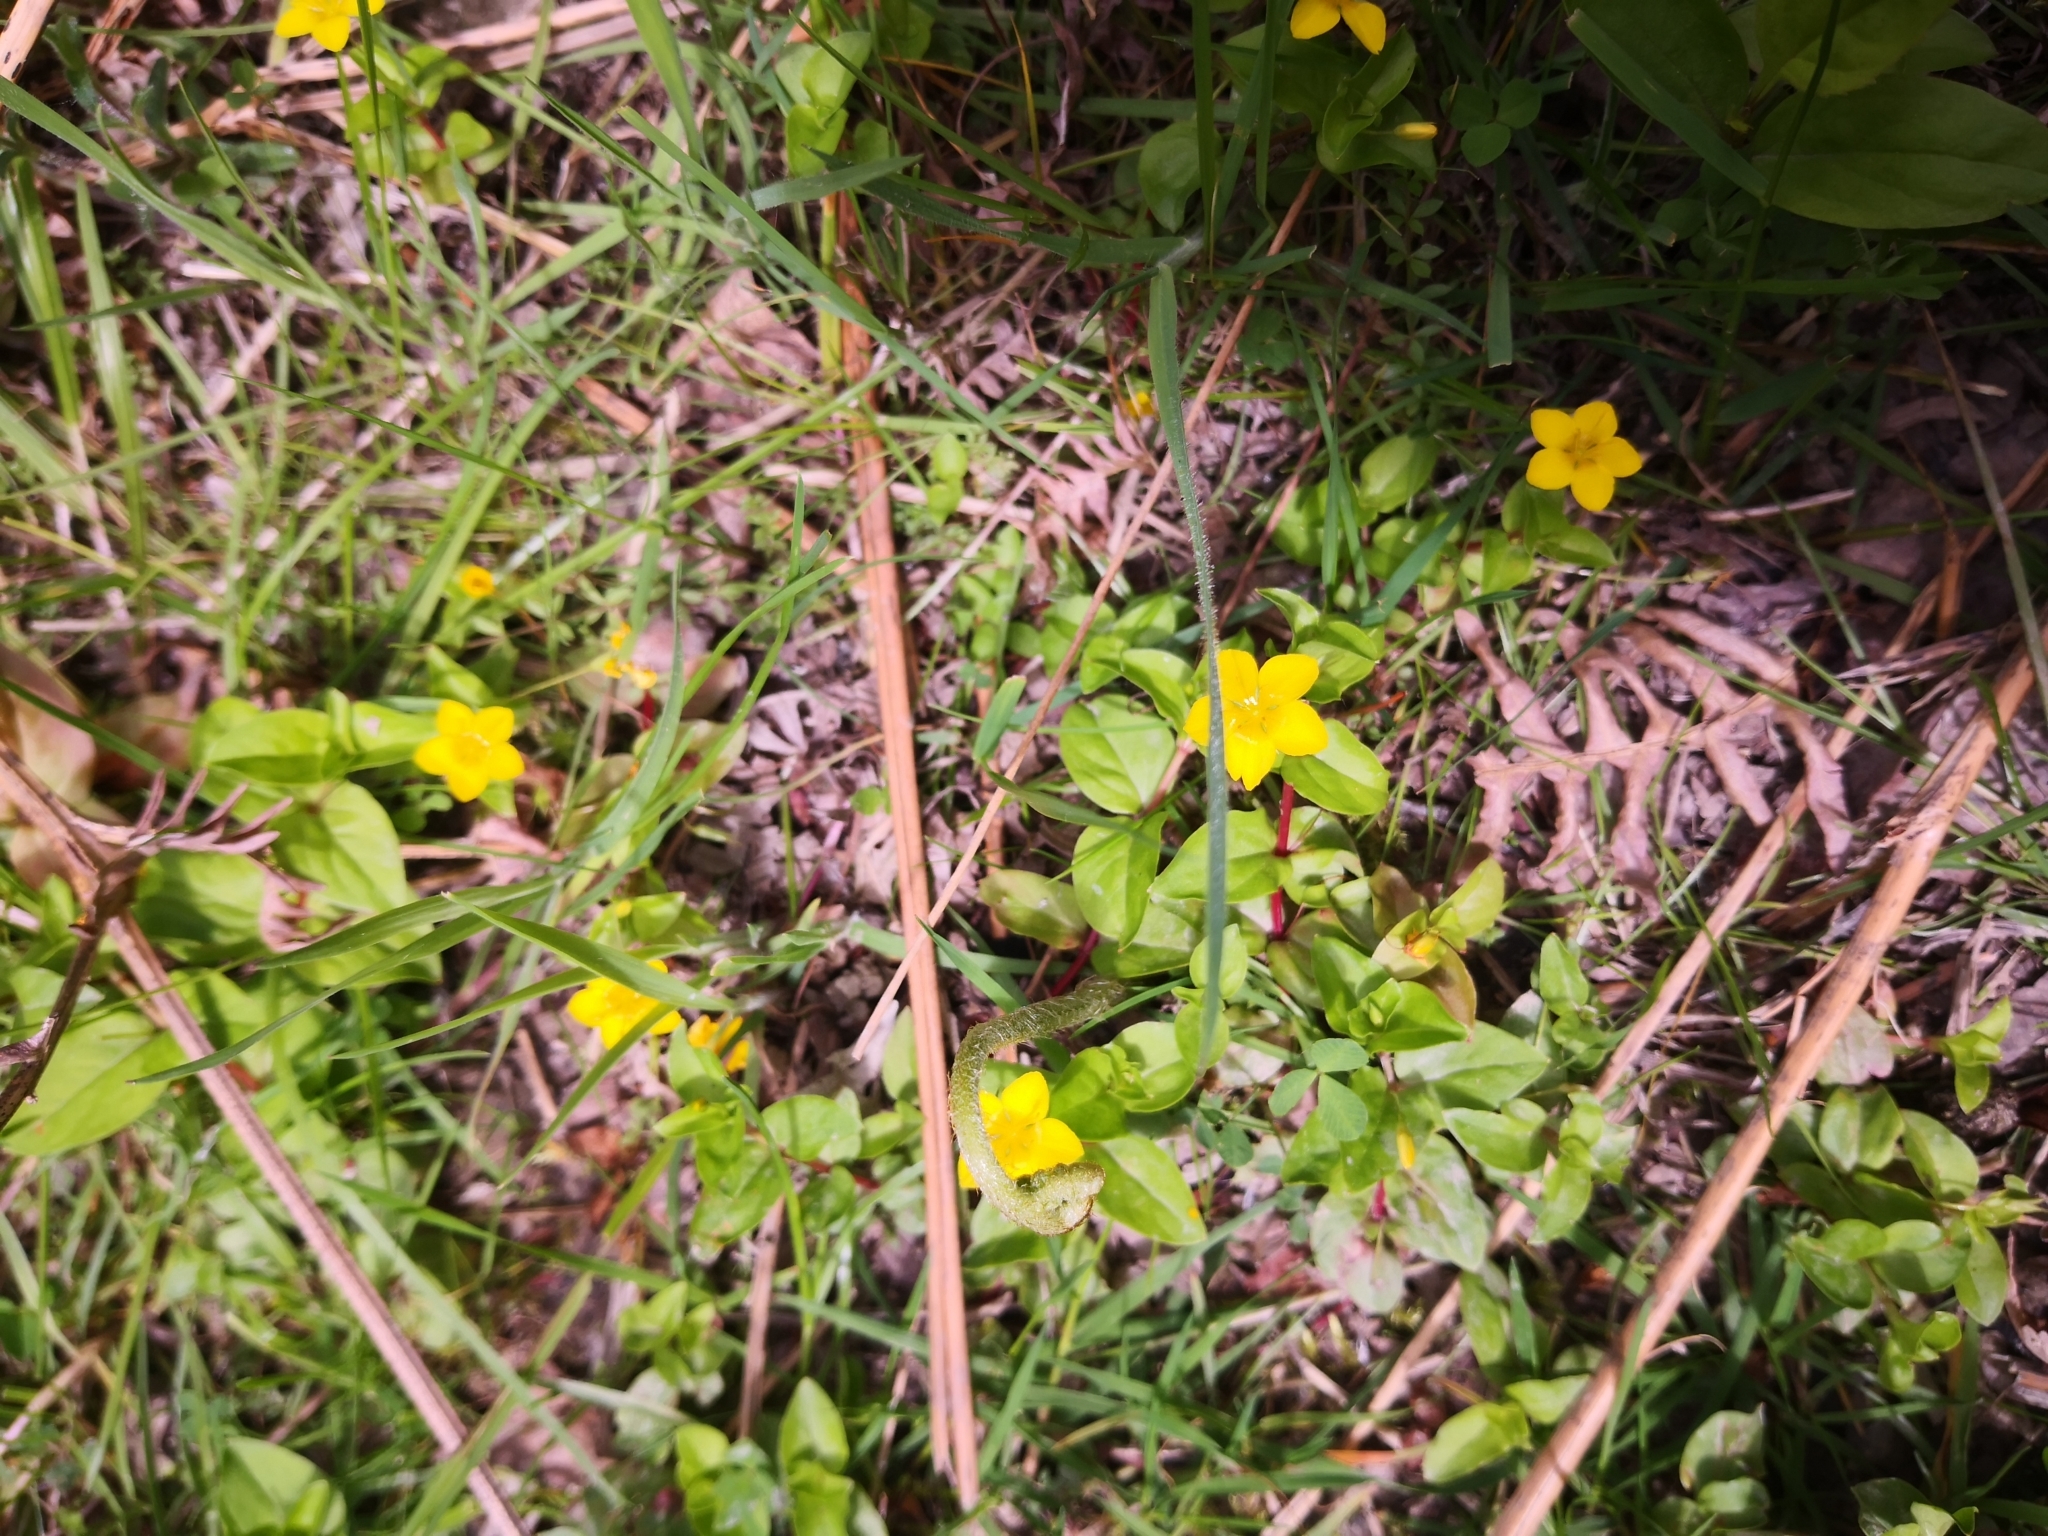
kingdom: Plantae
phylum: Tracheophyta
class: Magnoliopsida
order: Ericales
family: Primulaceae
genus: Lysimachia
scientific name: Lysimachia nemorum
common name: Yellow pimpernel
